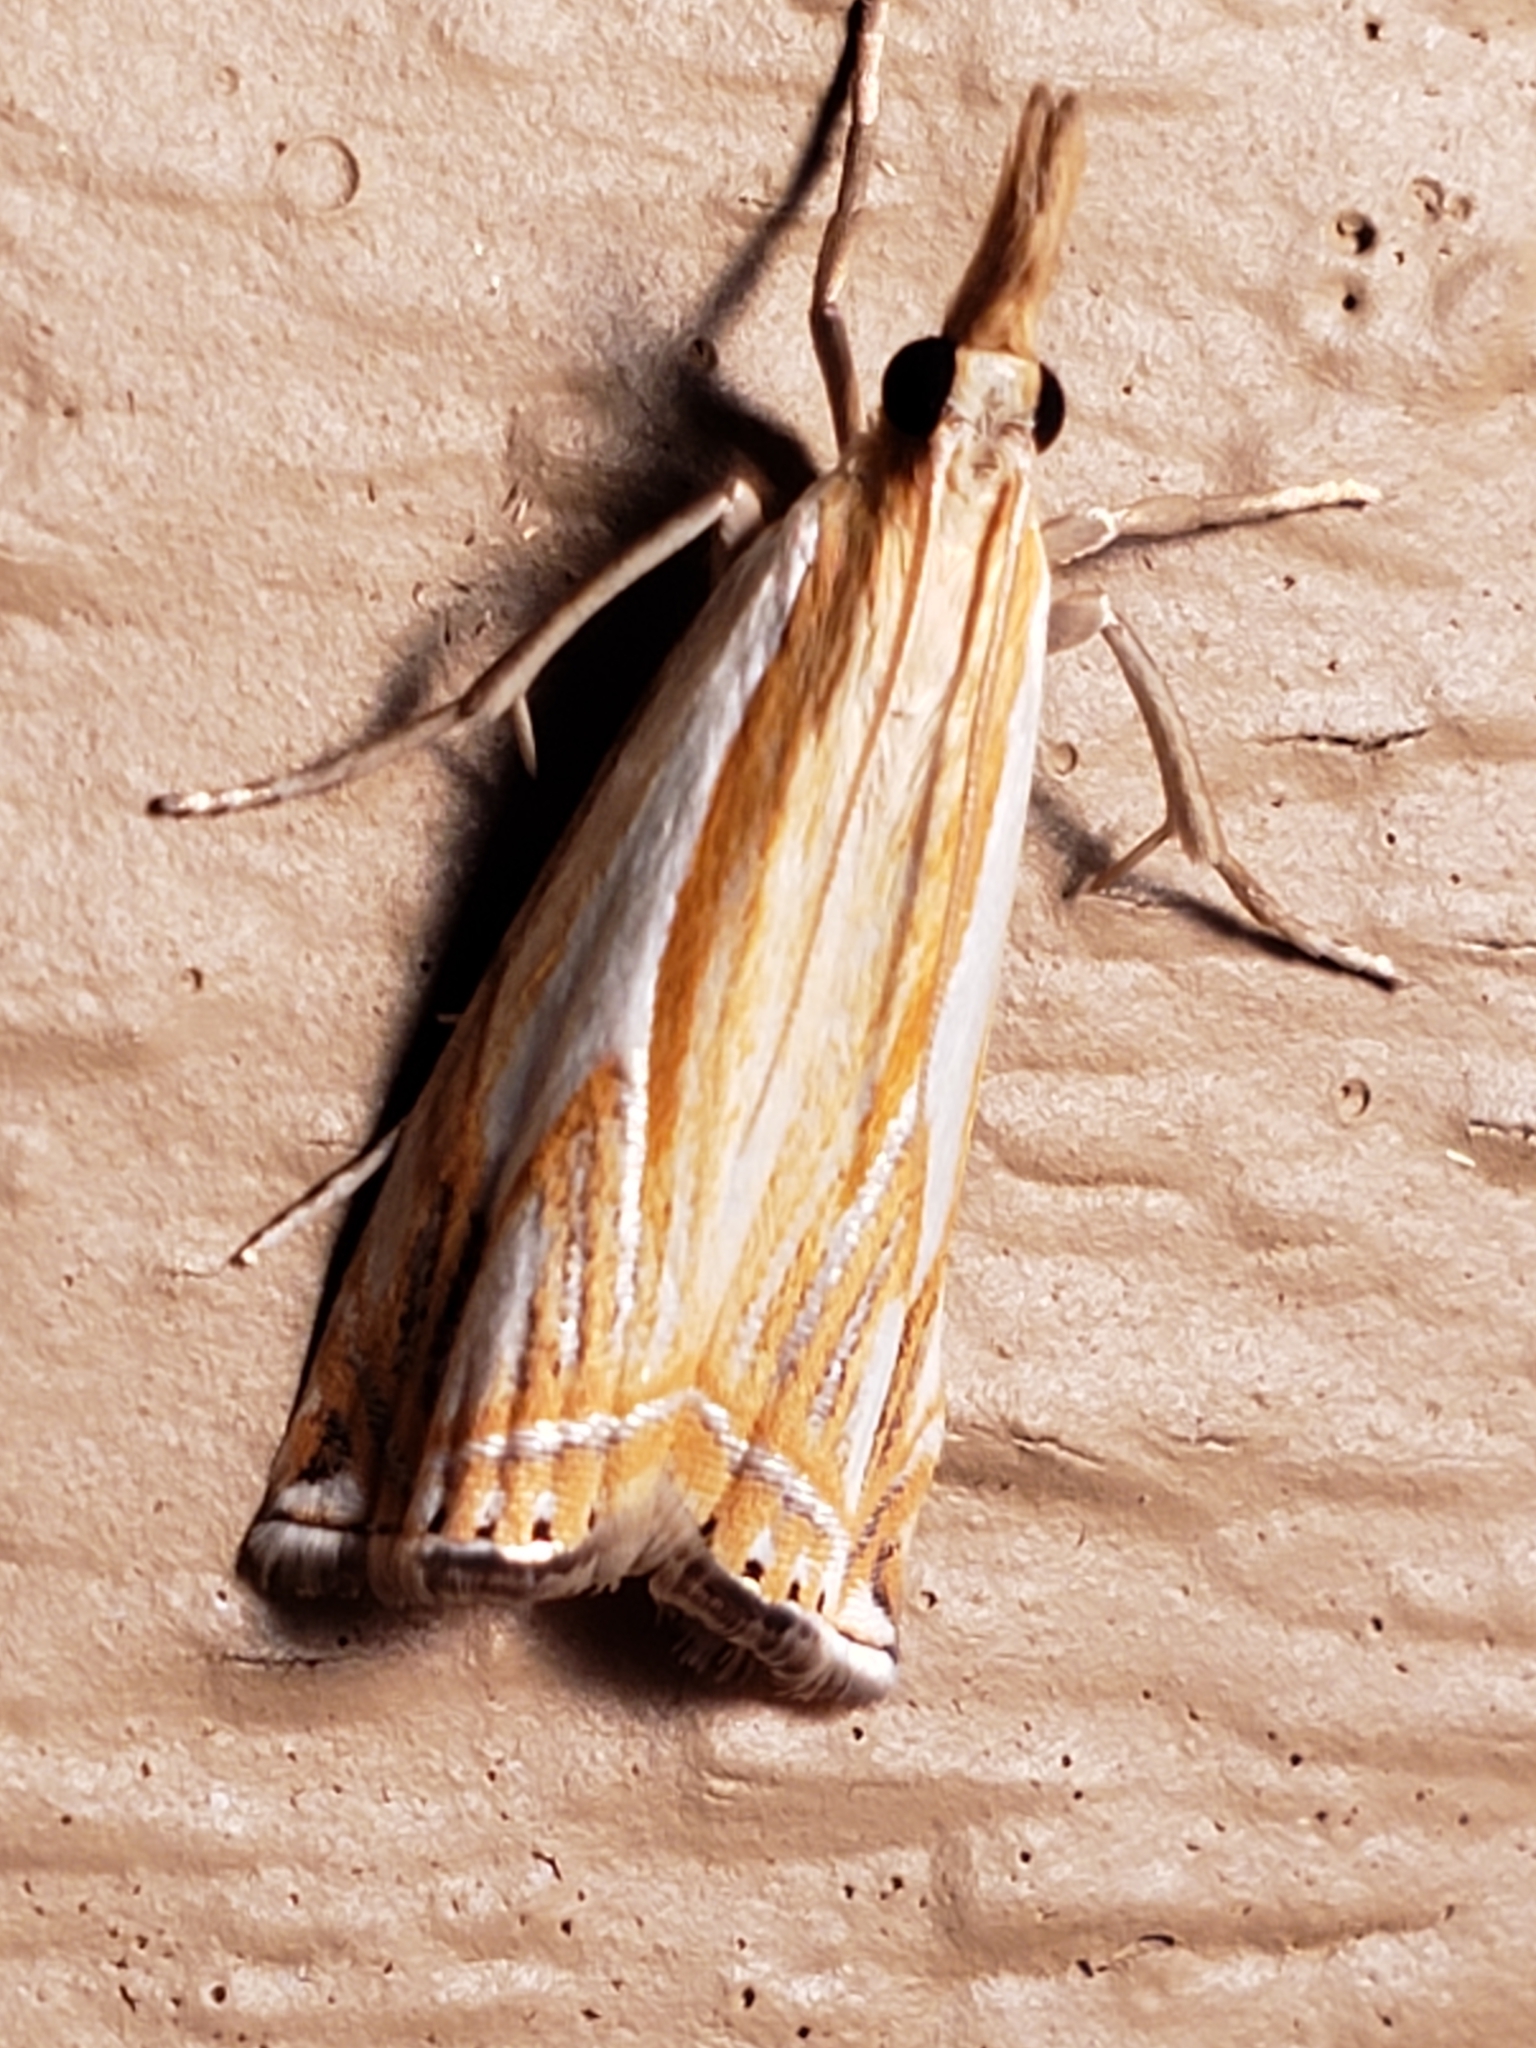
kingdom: Animalia
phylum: Arthropoda
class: Insecta
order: Lepidoptera
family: Crambidae
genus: Crambus
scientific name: Crambus agitatellus
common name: Double-banded grass-veneer
